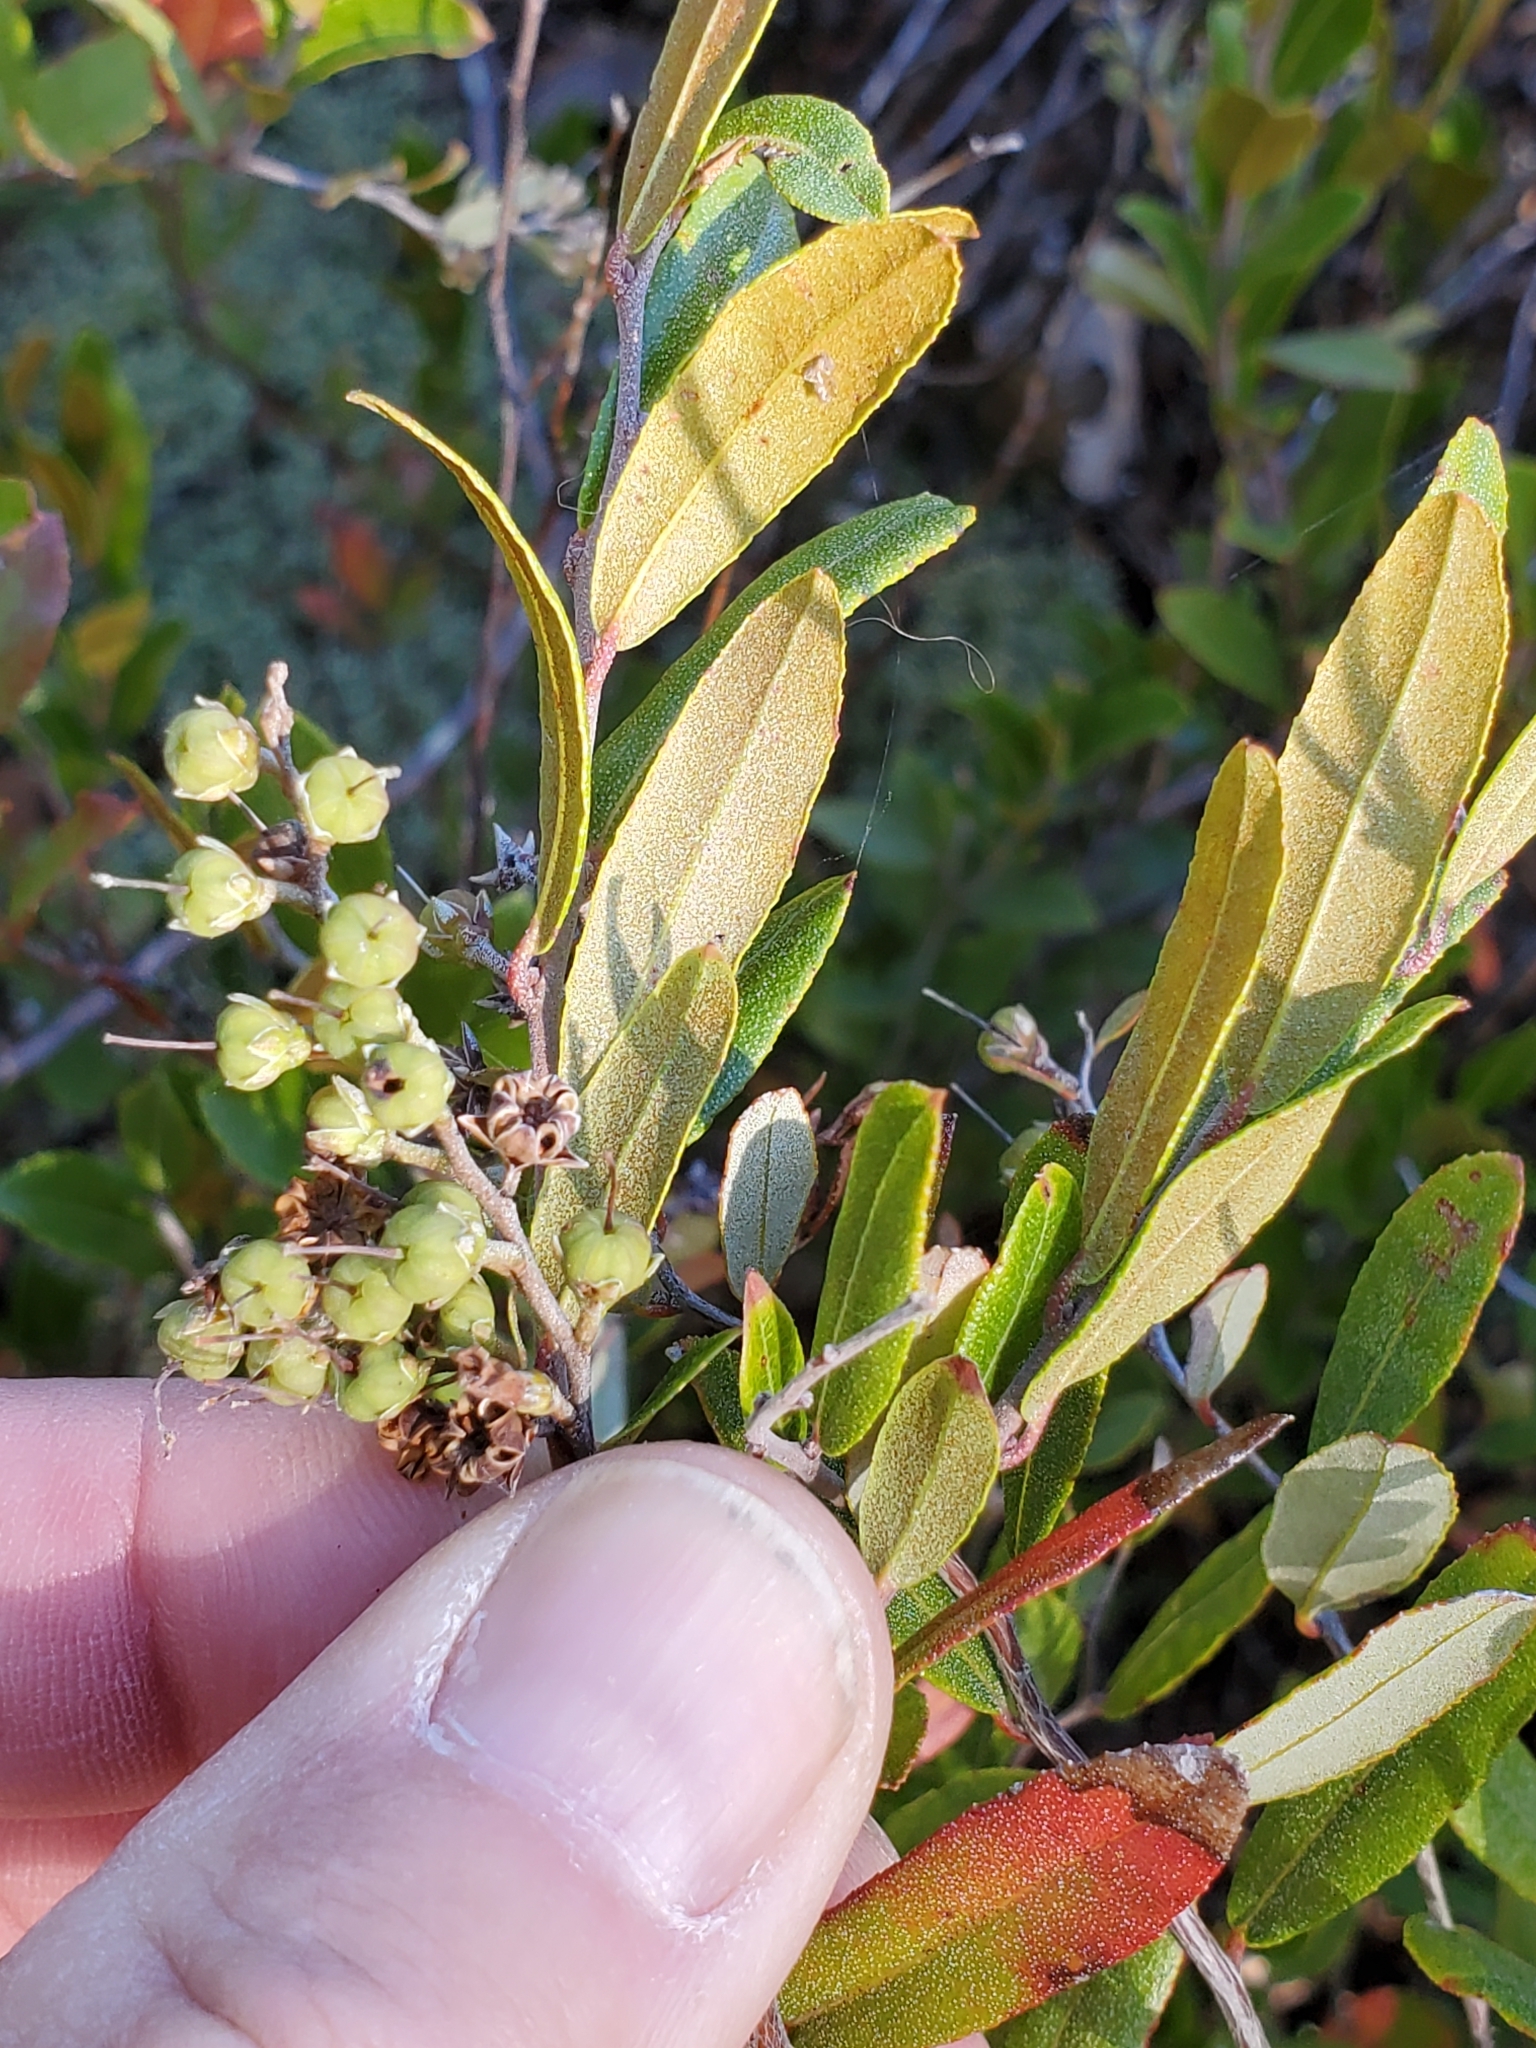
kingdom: Plantae
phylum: Tracheophyta
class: Magnoliopsida
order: Ericales
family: Ericaceae
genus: Chamaedaphne
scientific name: Chamaedaphne calyculata
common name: Leatherleaf
